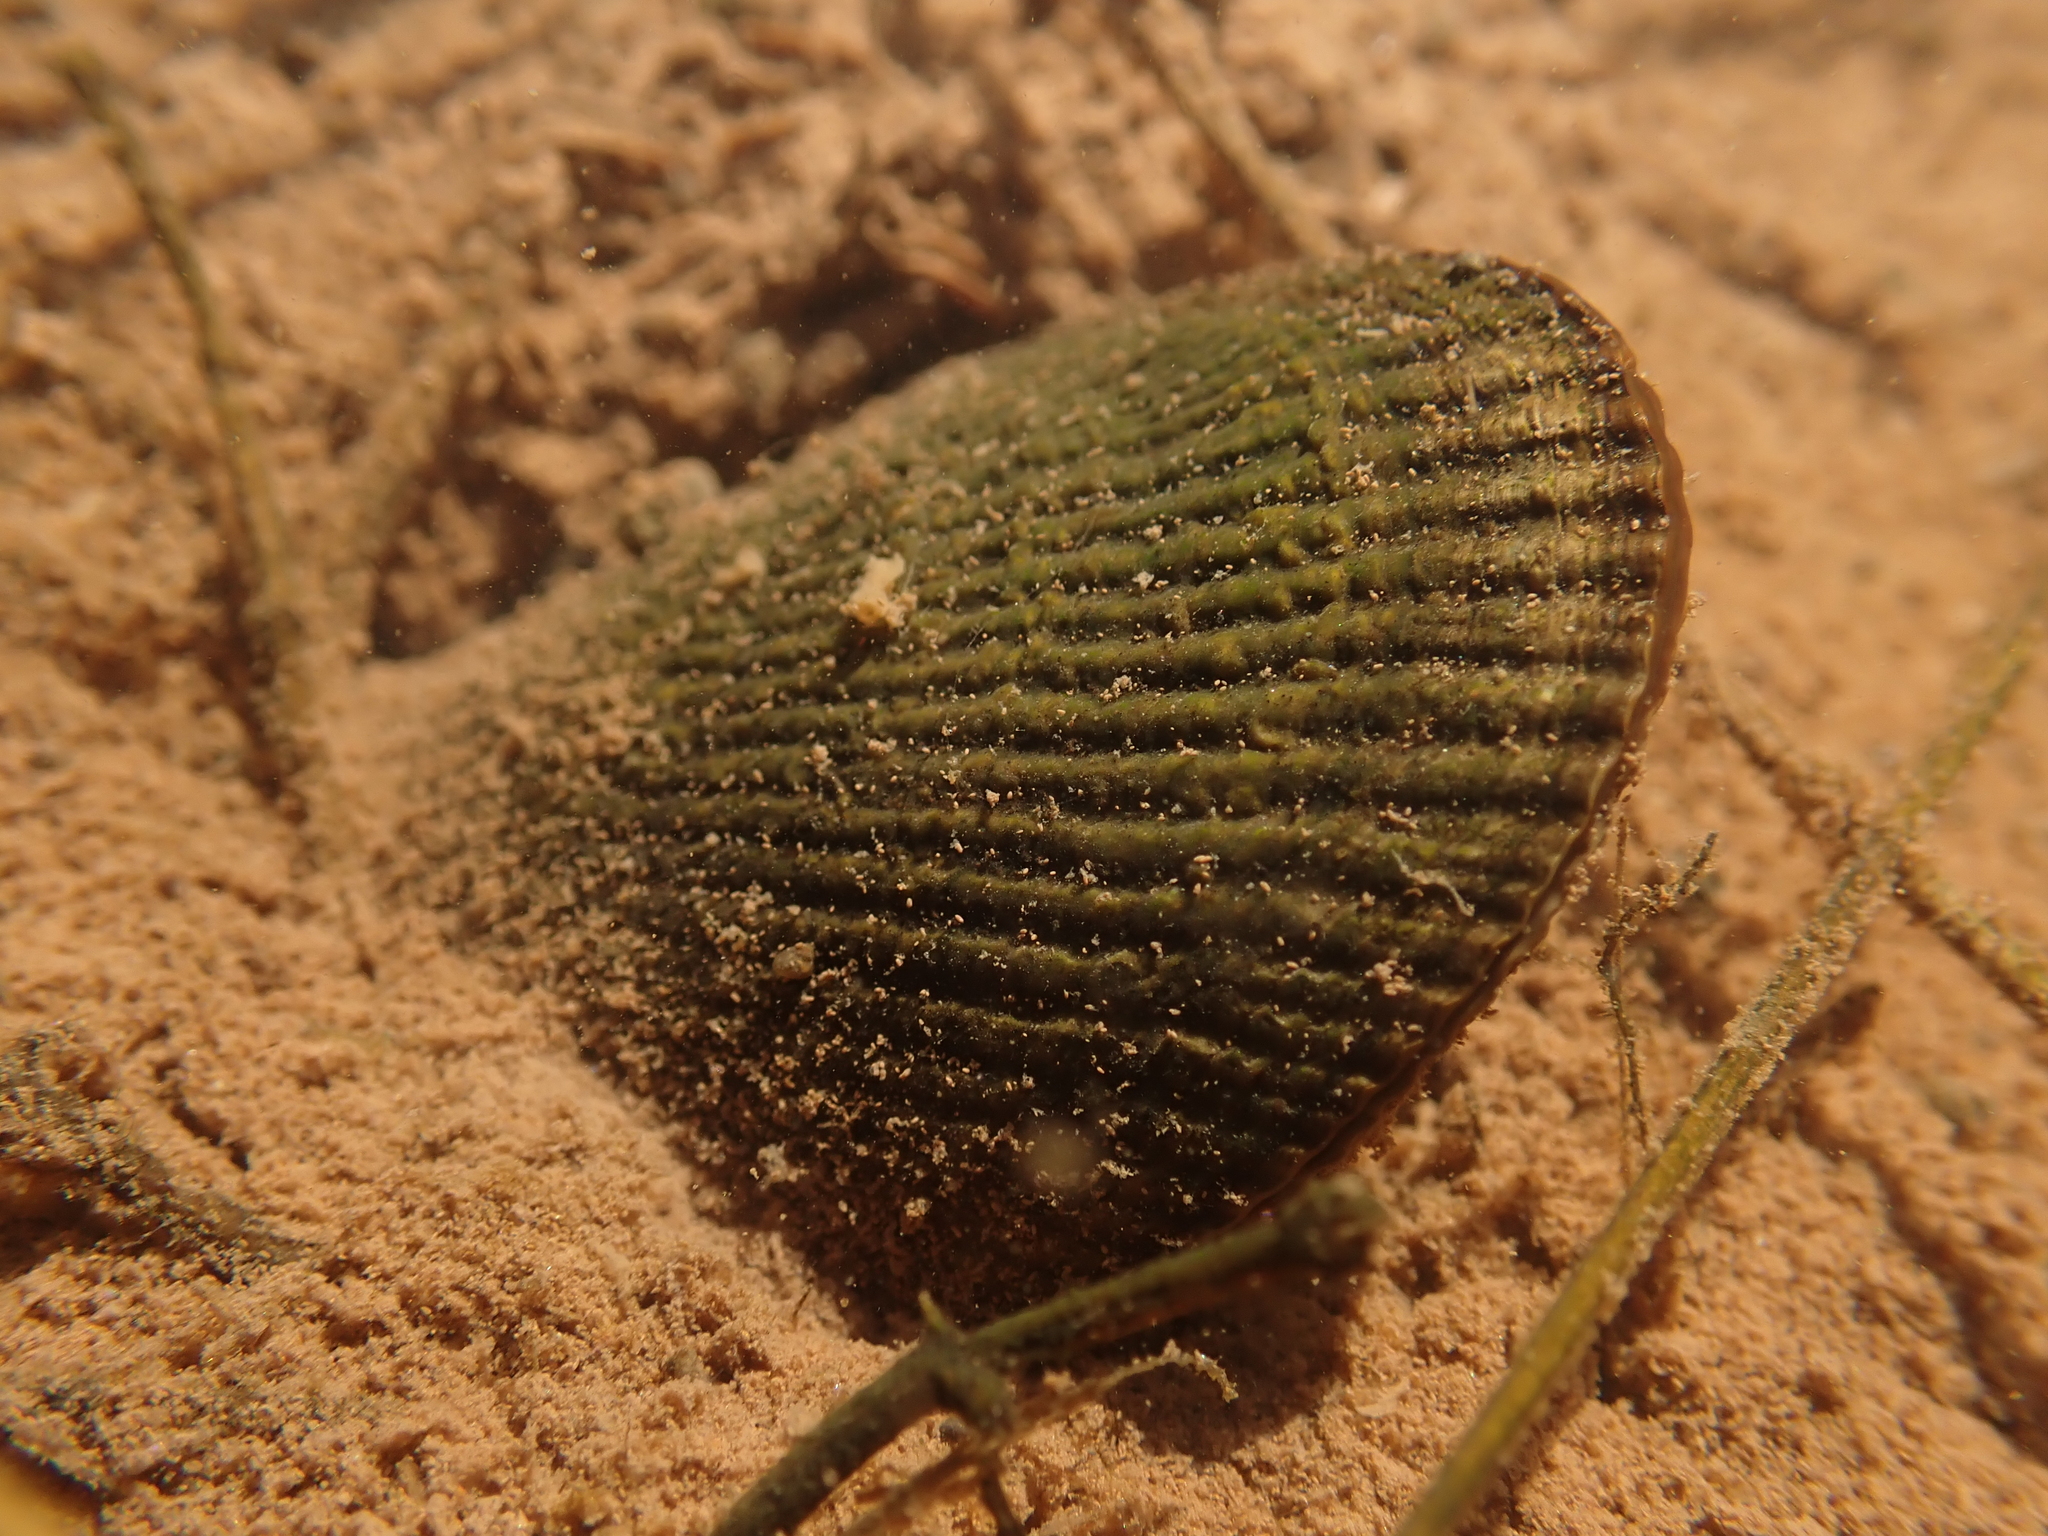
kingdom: Animalia
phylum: Mollusca
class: Bivalvia
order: Mytilida
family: Mytilidae
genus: Geukensia
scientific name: Geukensia demissa
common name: Ribbed mussel
